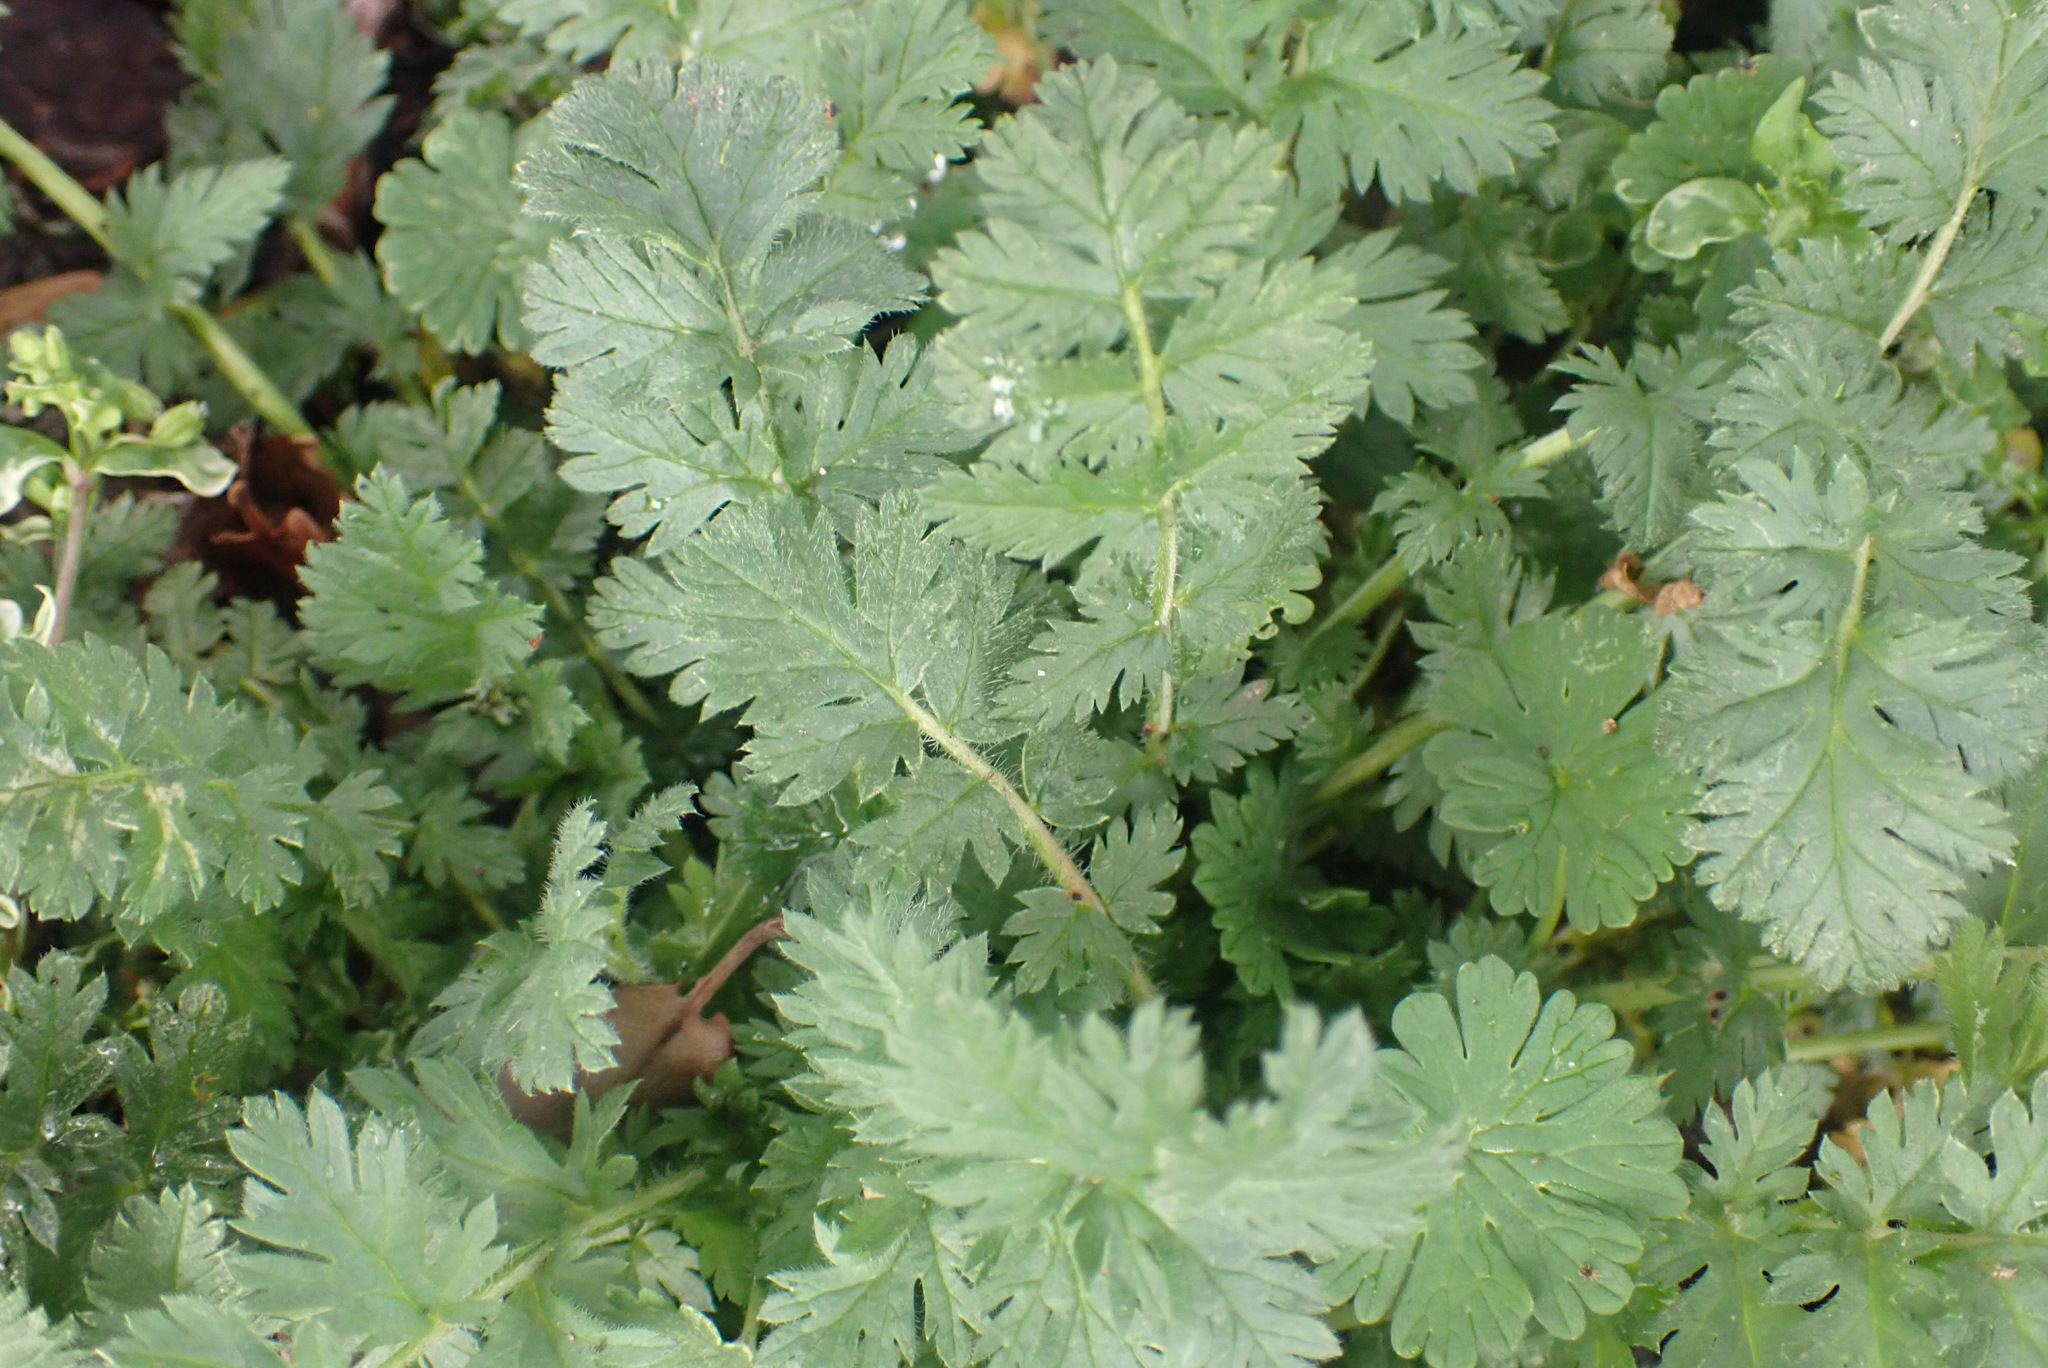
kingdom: Plantae
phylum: Tracheophyta
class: Magnoliopsida
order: Geraniales
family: Geraniaceae
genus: Erodium
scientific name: Erodium cicutarium
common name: Common stork's-bill
